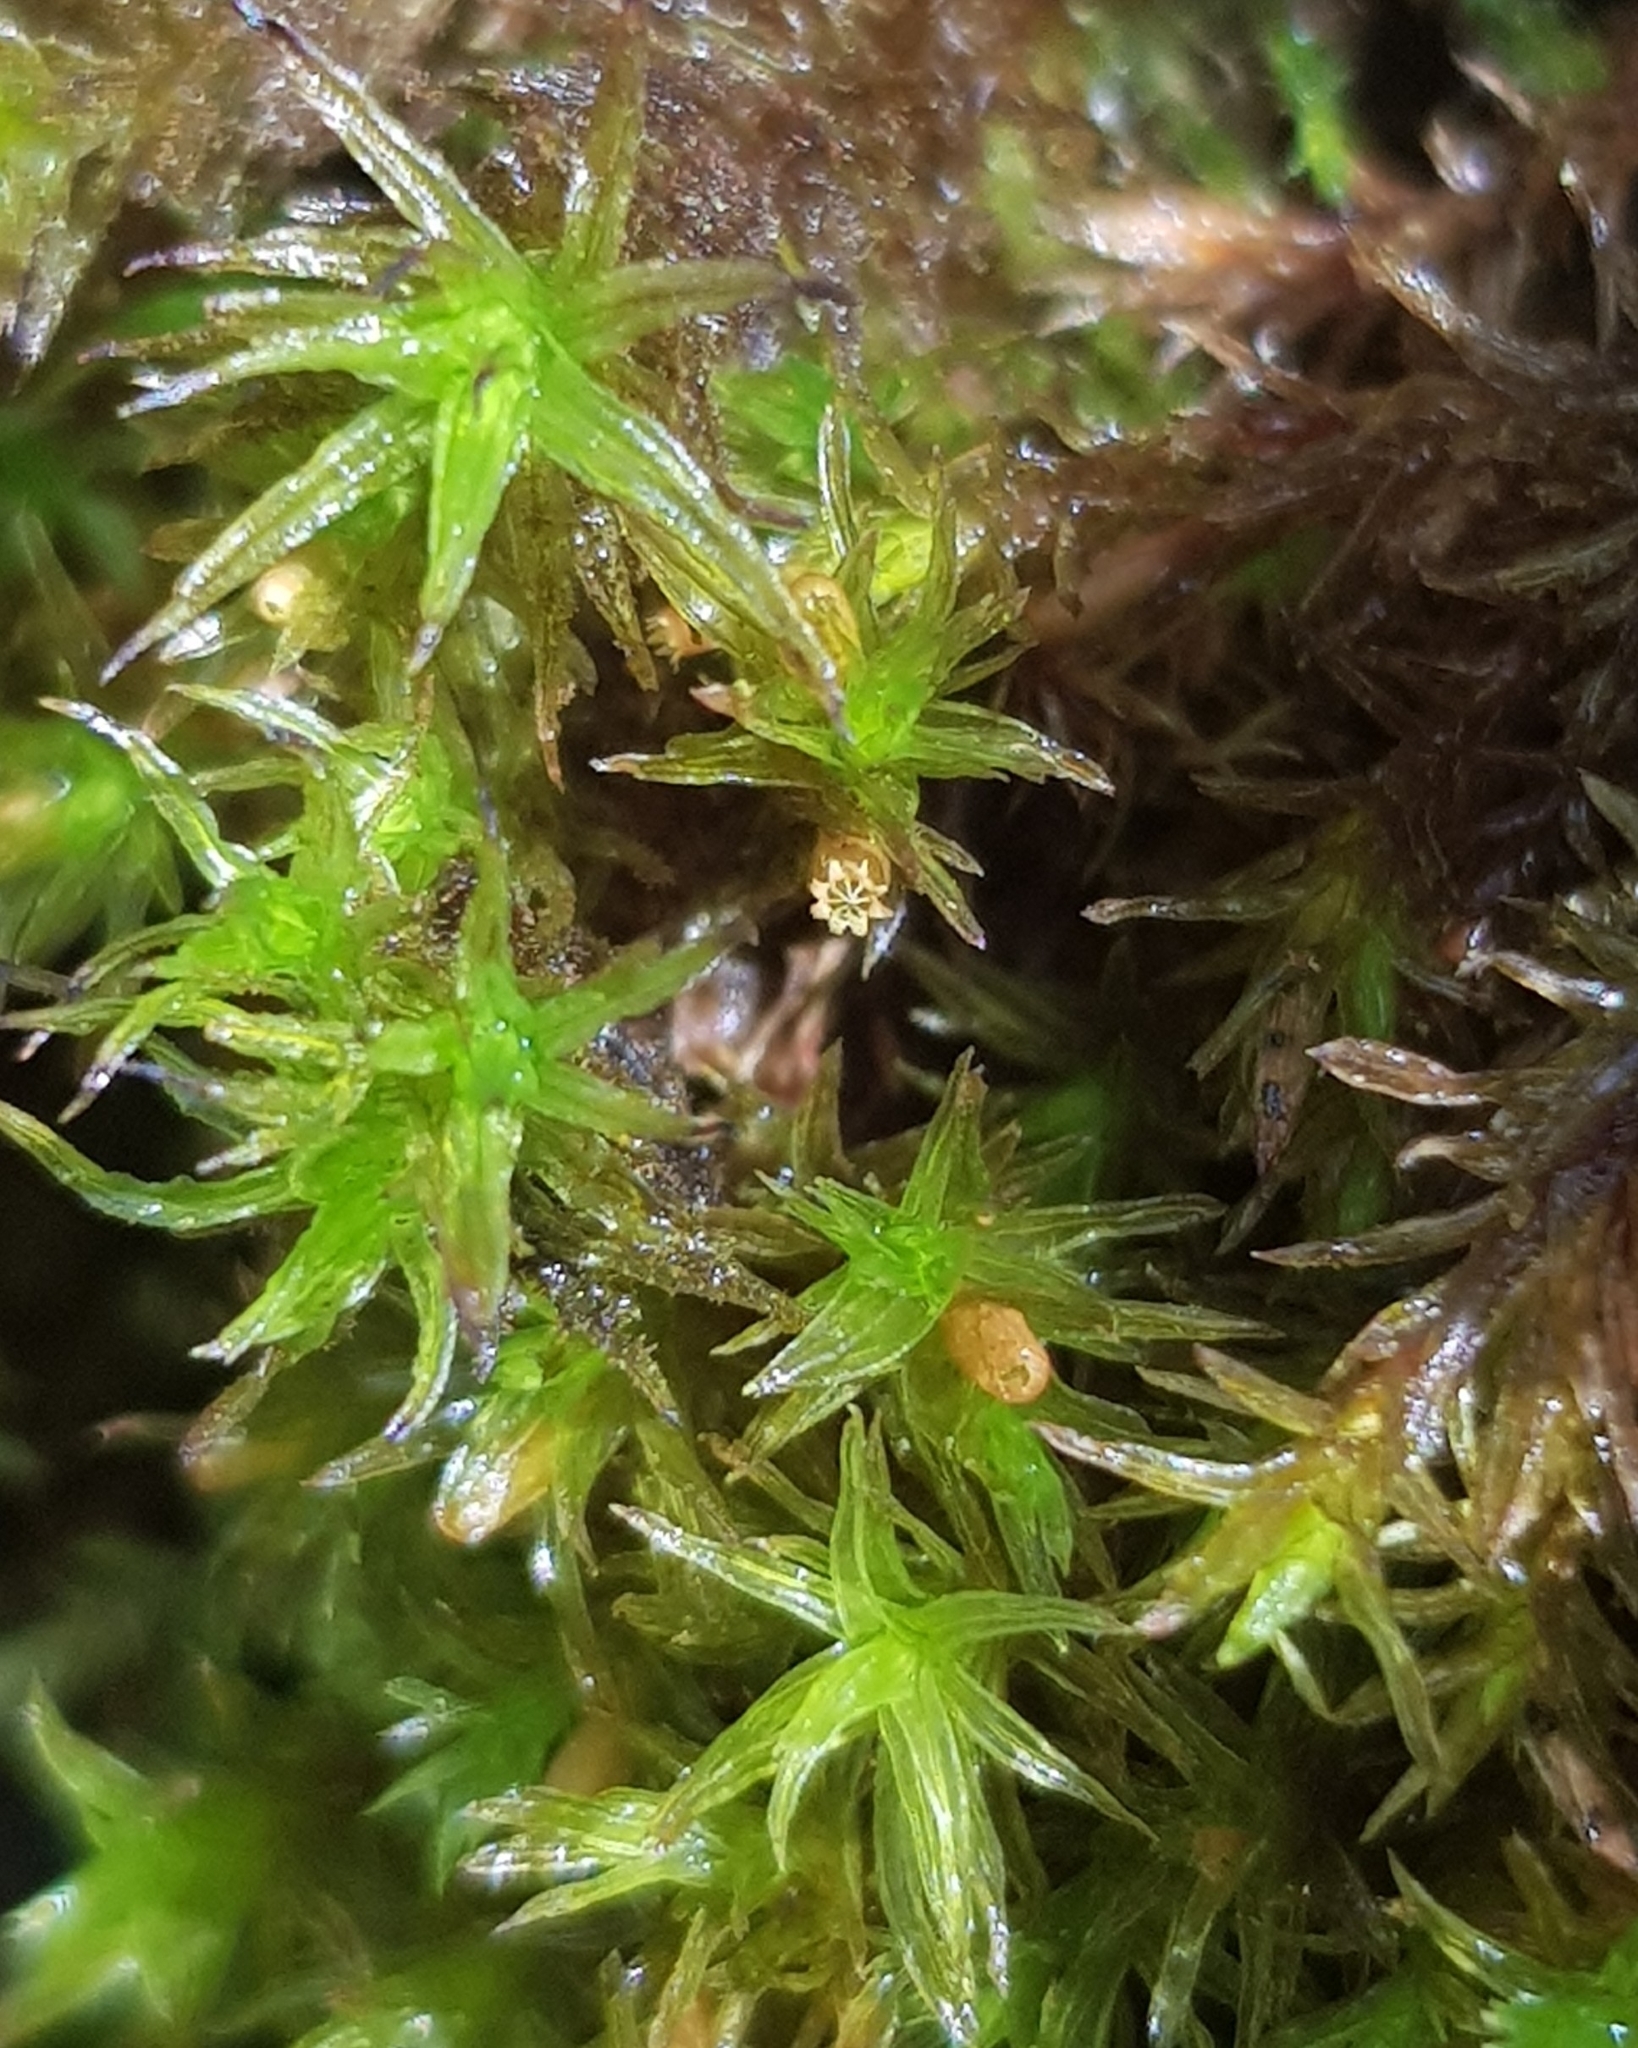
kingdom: Plantae
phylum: Bryophyta
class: Bryopsida
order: Orthotrichales
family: Orthotrichaceae
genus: Lewinskya
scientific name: Lewinskya affinis
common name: Wood bristle-moss
